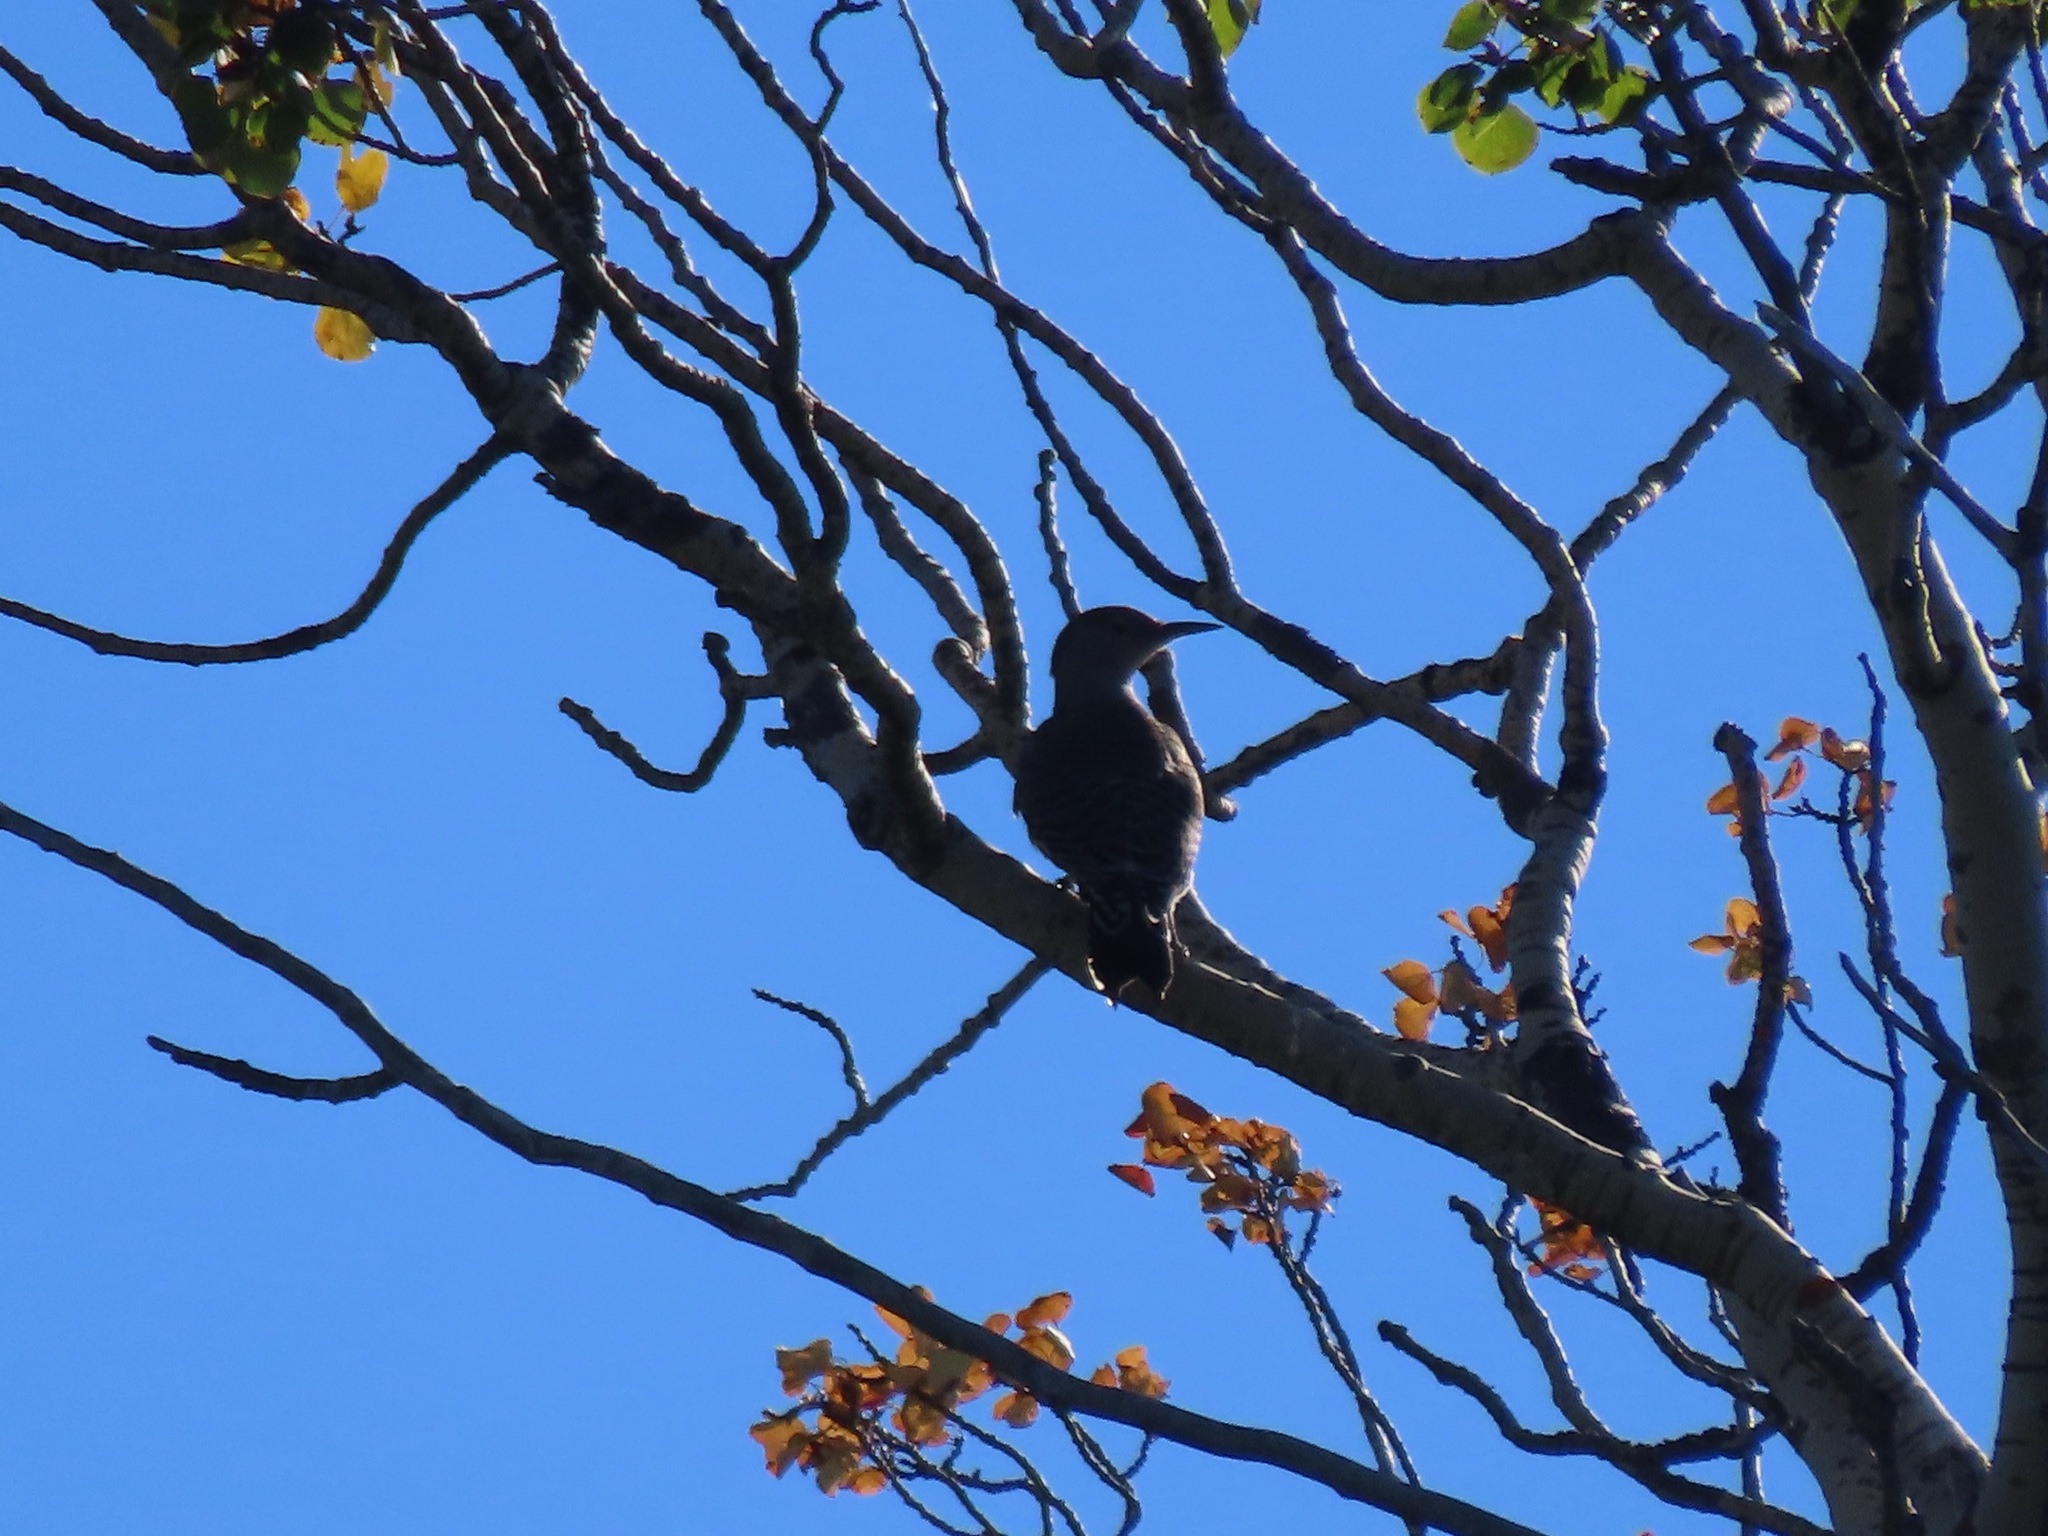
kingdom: Animalia
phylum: Chordata
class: Aves
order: Piciformes
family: Picidae
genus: Colaptes
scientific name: Colaptes auratus
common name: Northern flicker
